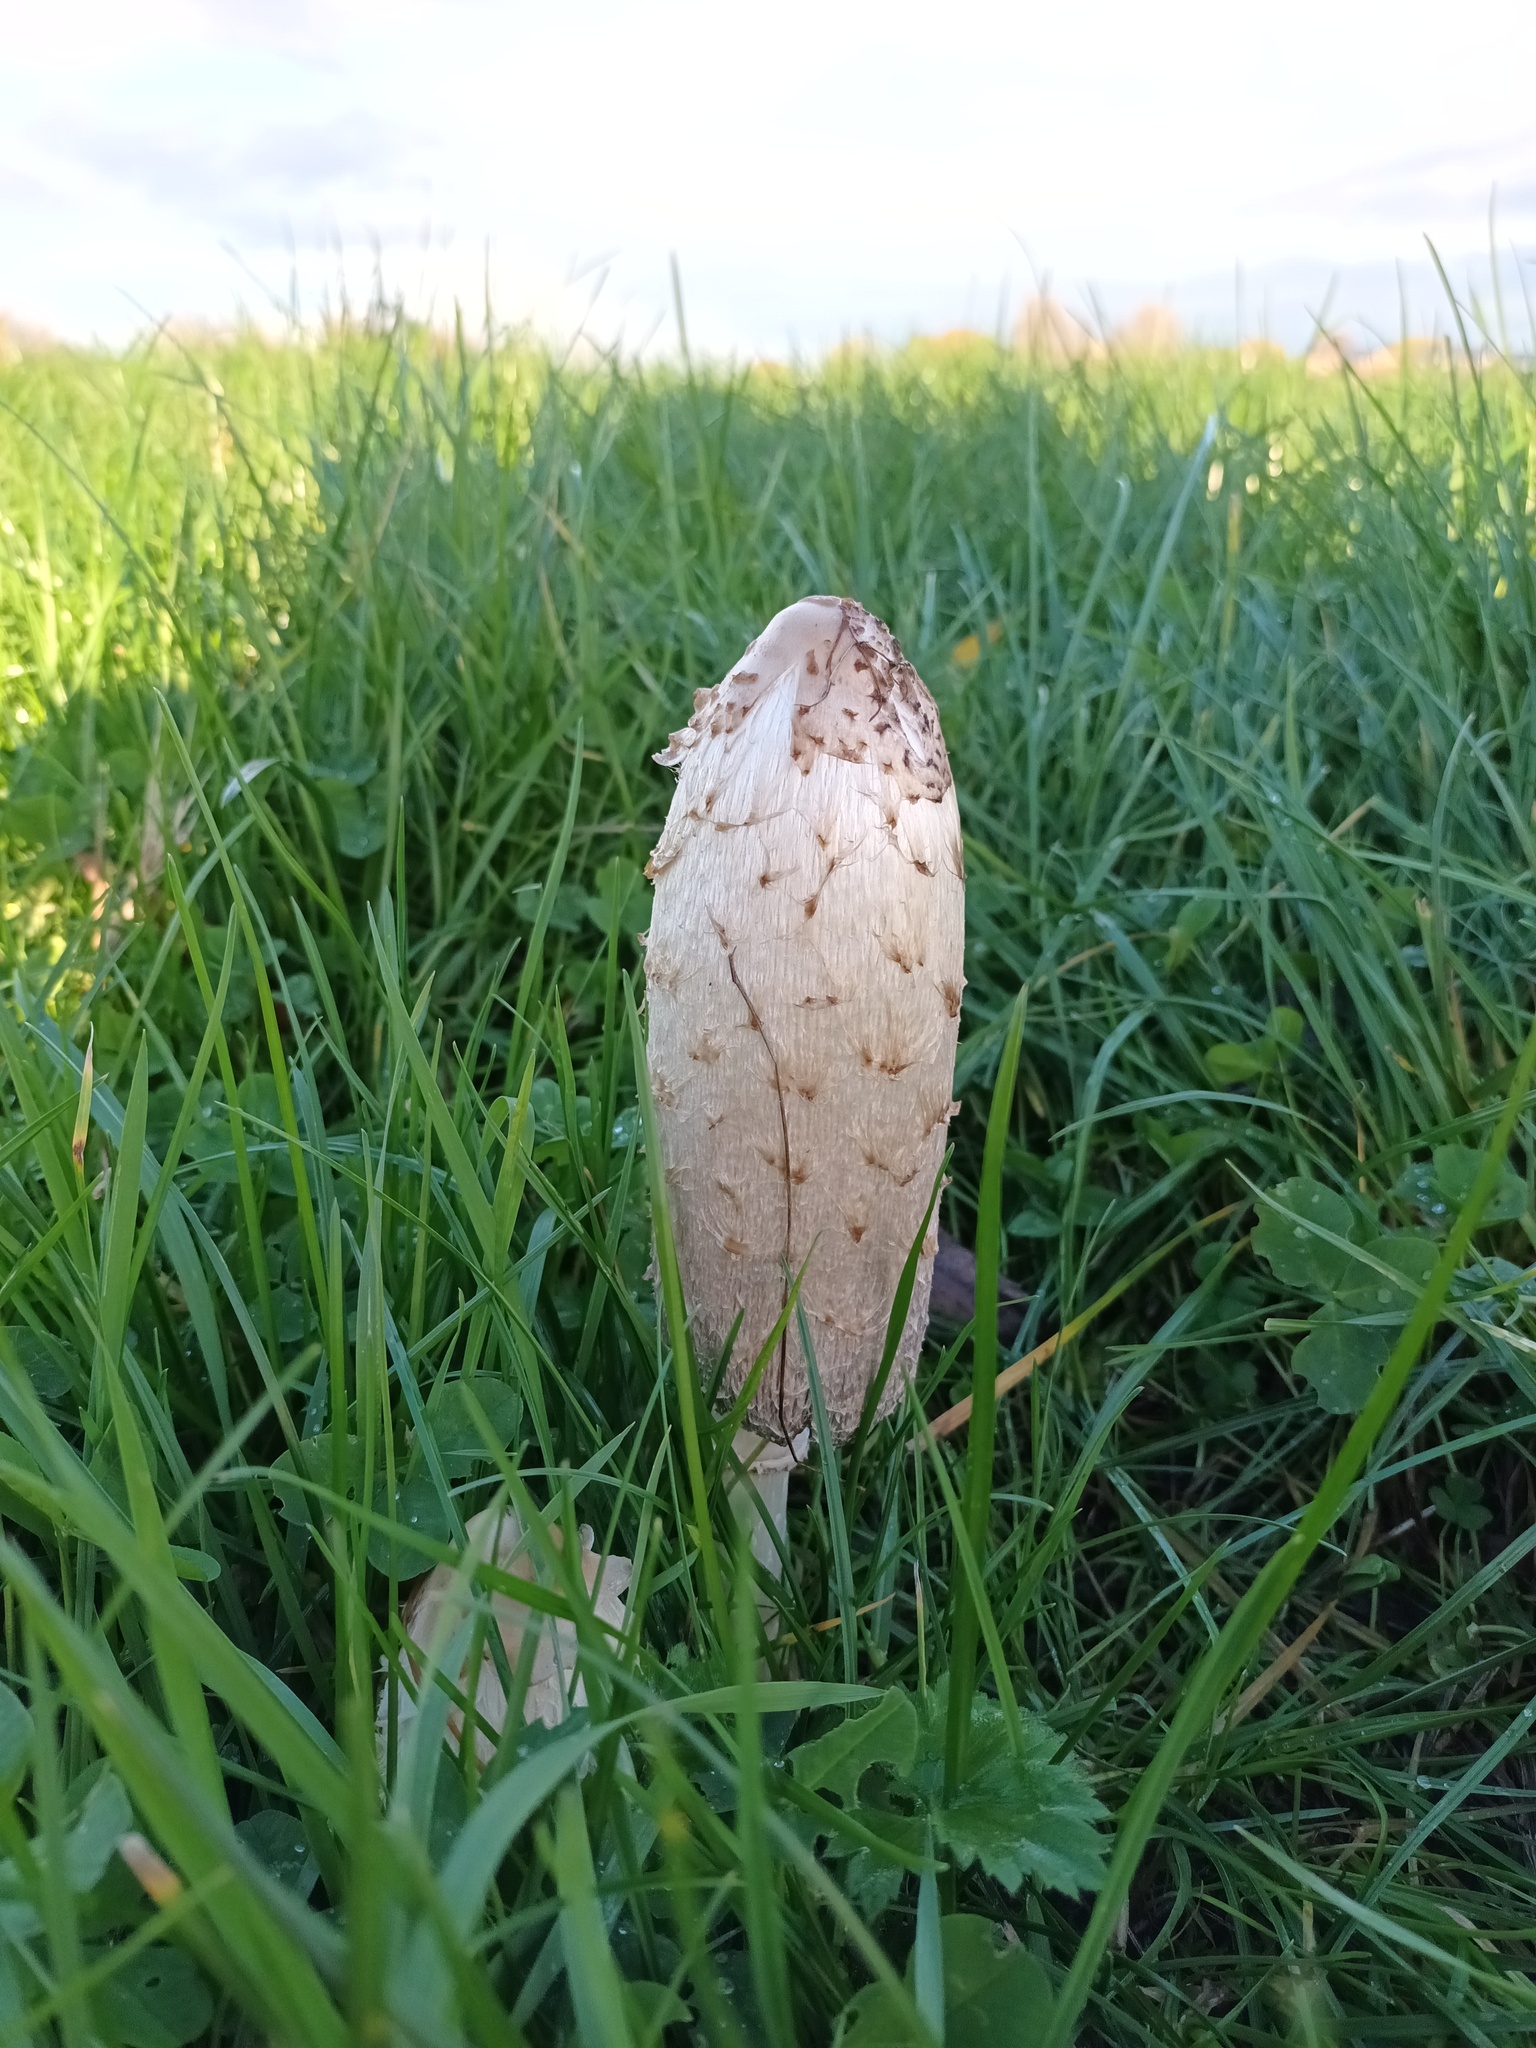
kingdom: Fungi
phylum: Basidiomycota
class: Agaricomycetes
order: Agaricales
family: Agaricaceae
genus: Coprinus
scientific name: Coprinus comatus
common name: Lawyer's wig
